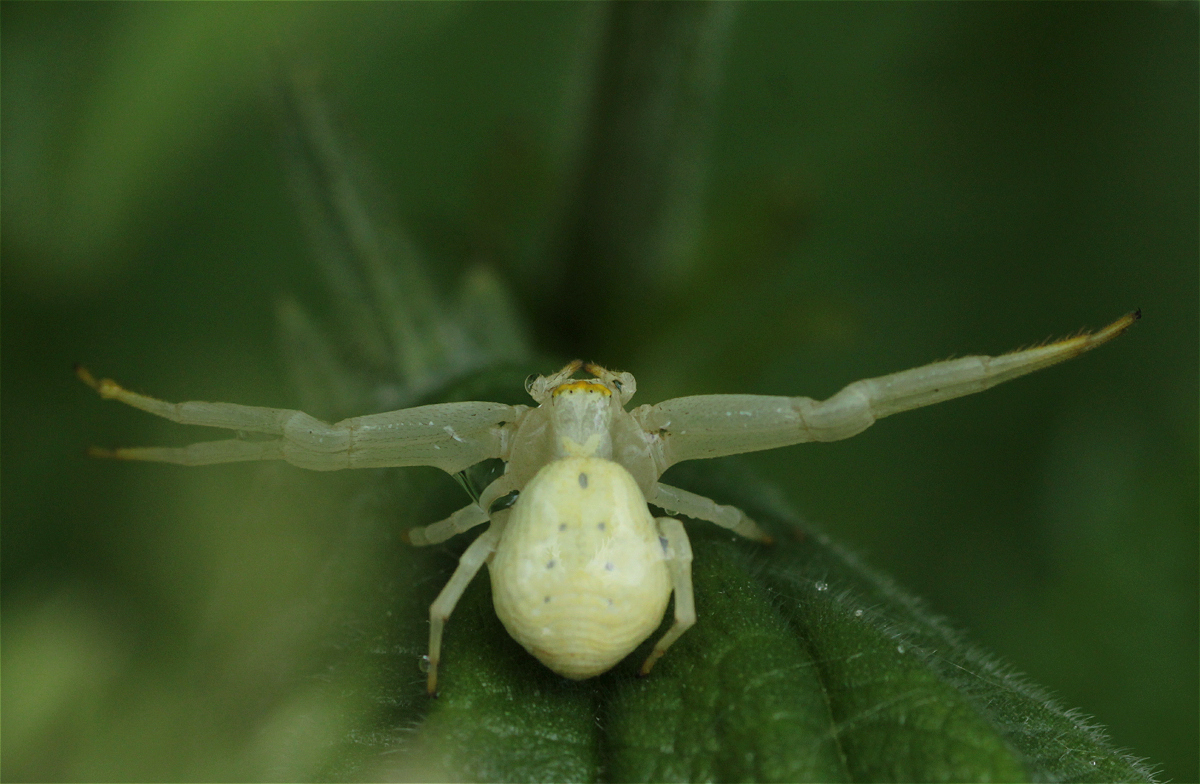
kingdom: Animalia
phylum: Arthropoda
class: Arachnida
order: Araneae
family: Thomisidae
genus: Misumena
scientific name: Misumena vatia
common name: Goldenrod crab spider
